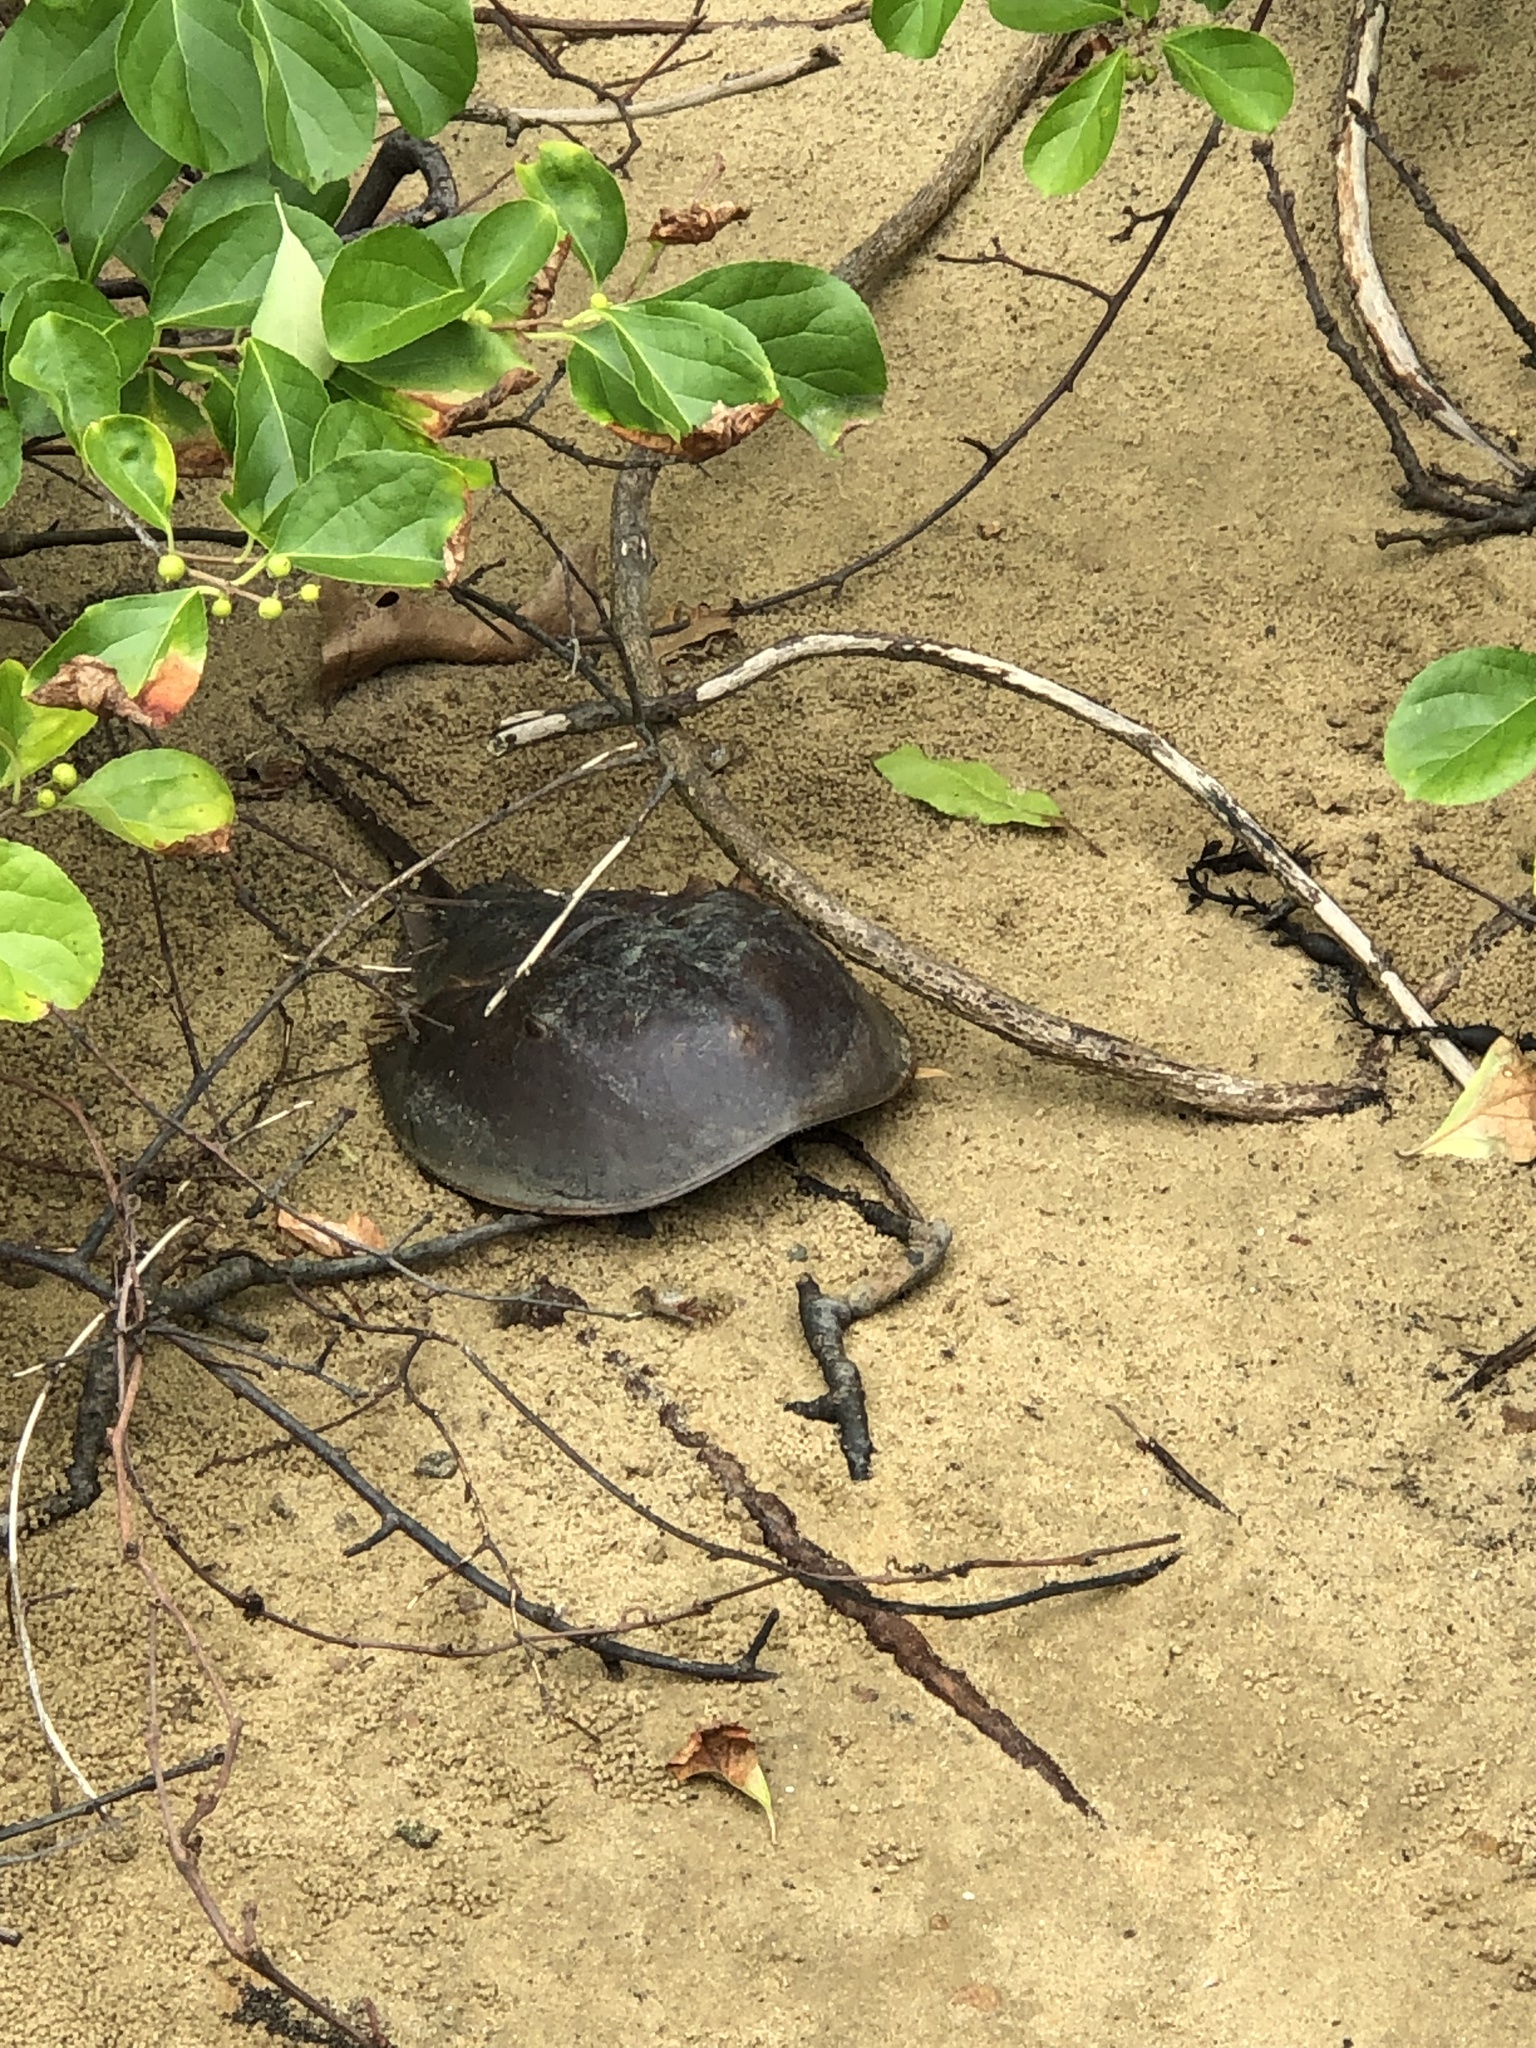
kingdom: Animalia
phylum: Arthropoda
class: Merostomata
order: Xiphosurida
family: Limulidae
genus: Limulus
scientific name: Limulus polyphemus
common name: Horseshoe crab
